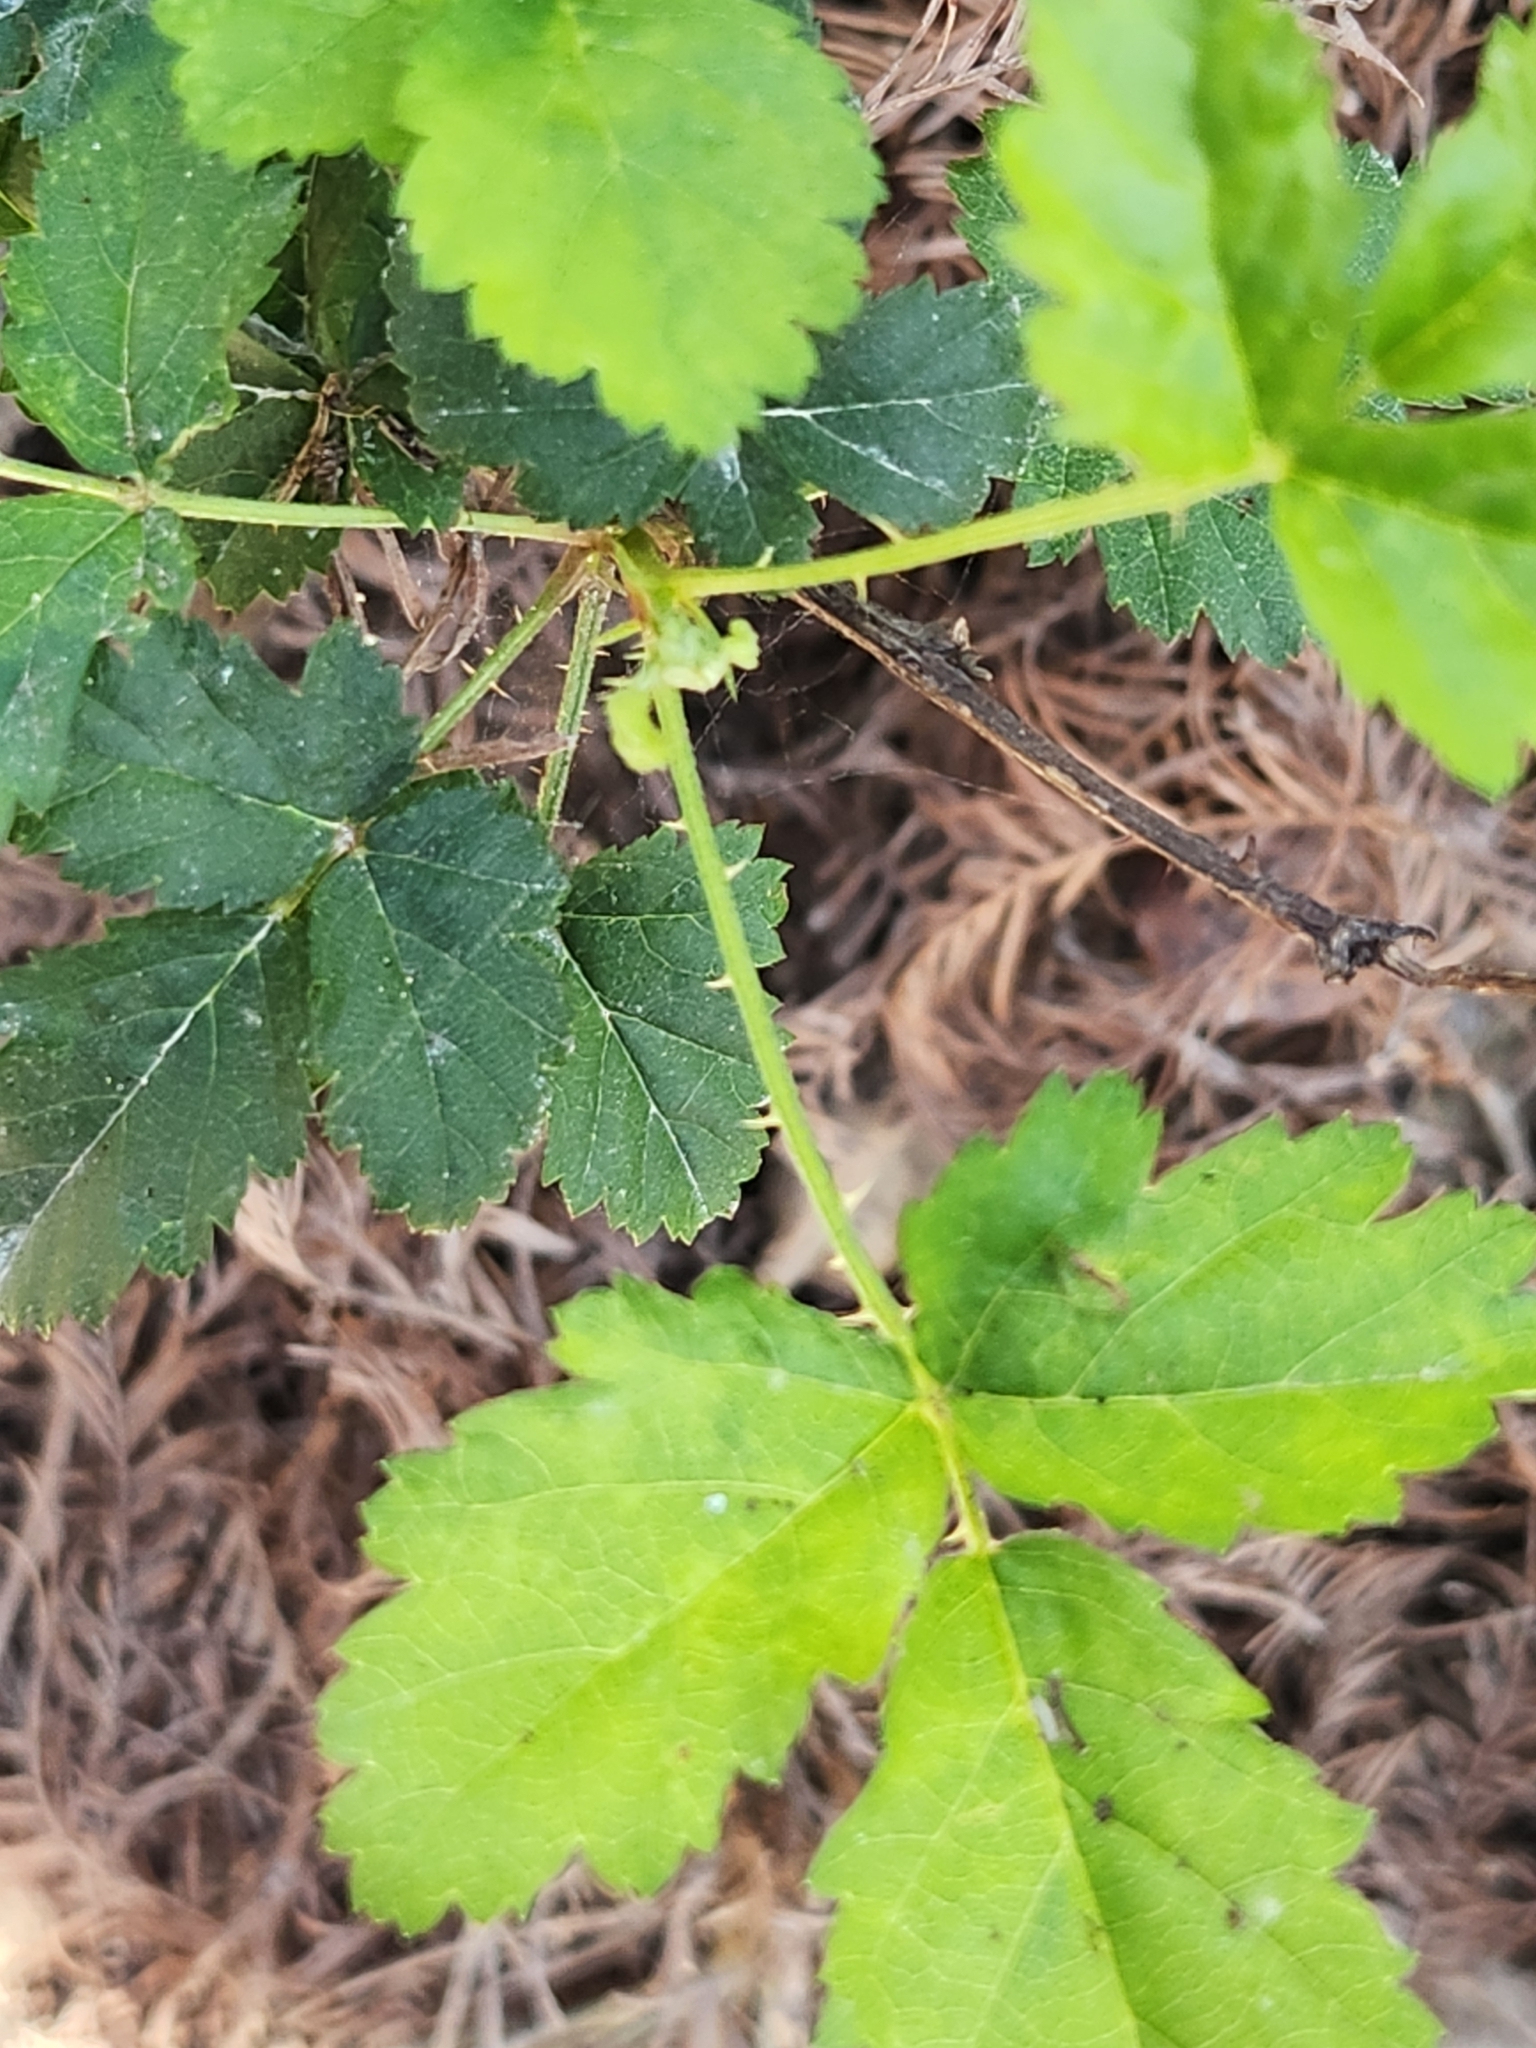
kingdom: Plantae
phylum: Tracheophyta
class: Magnoliopsida
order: Rosales
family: Rosaceae
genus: Rubus
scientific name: Rubus trivialis
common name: Southern dewberry
